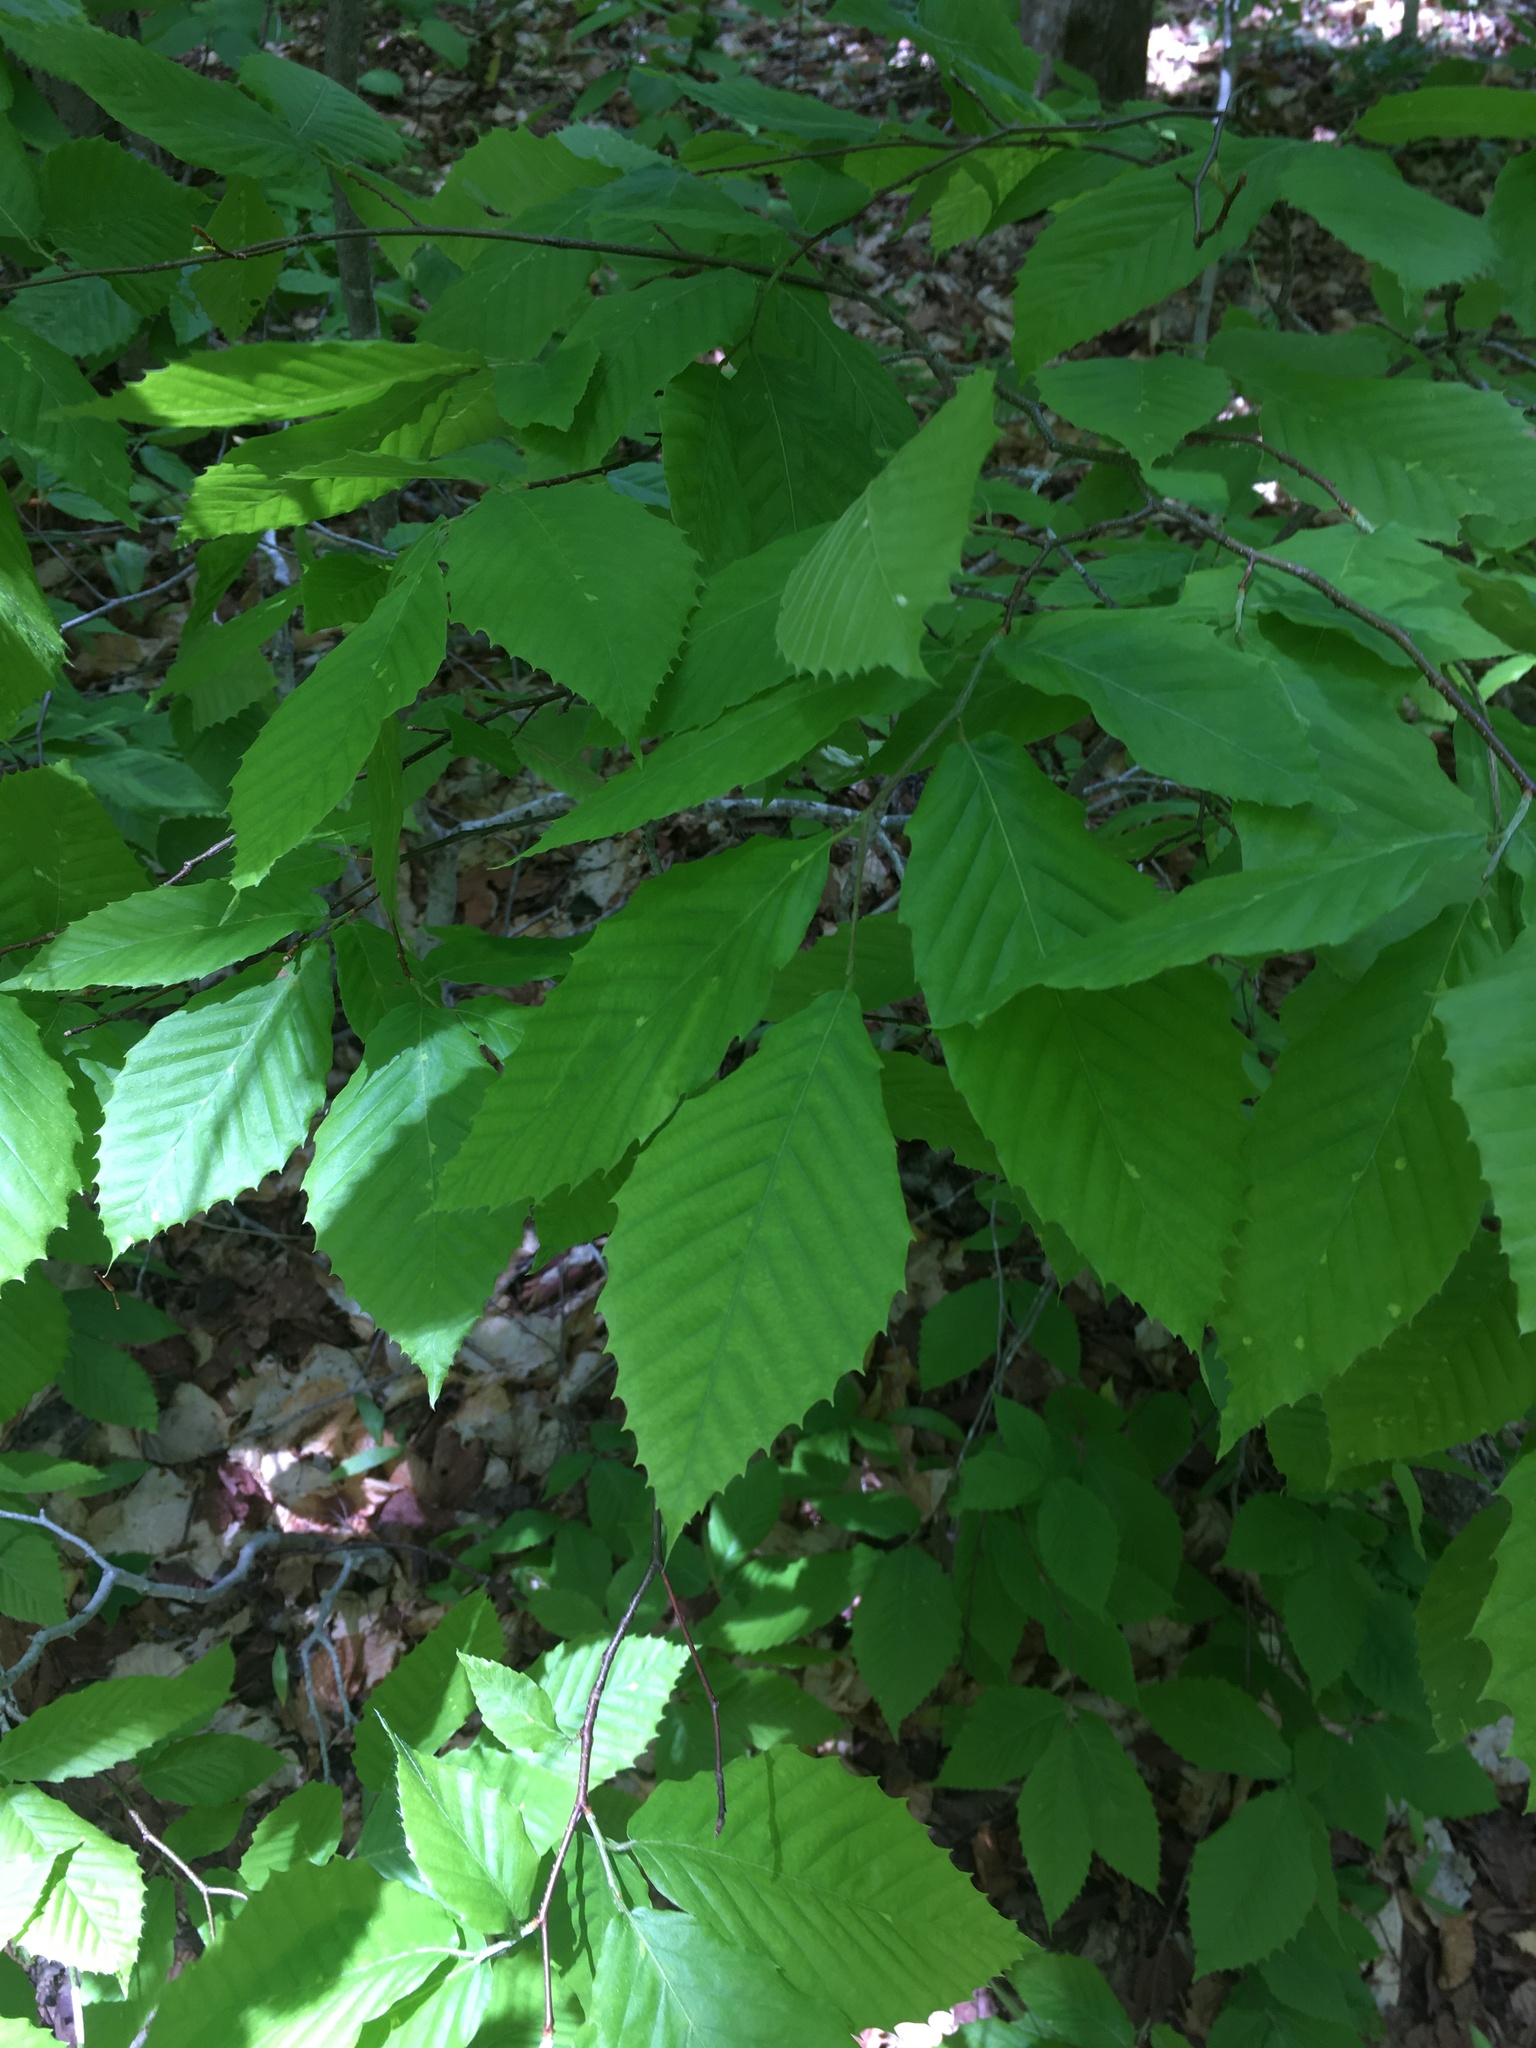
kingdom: Plantae
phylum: Tracheophyta
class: Magnoliopsida
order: Fagales
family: Fagaceae
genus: Fagus
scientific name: Fagus grandifolia
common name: American beech
